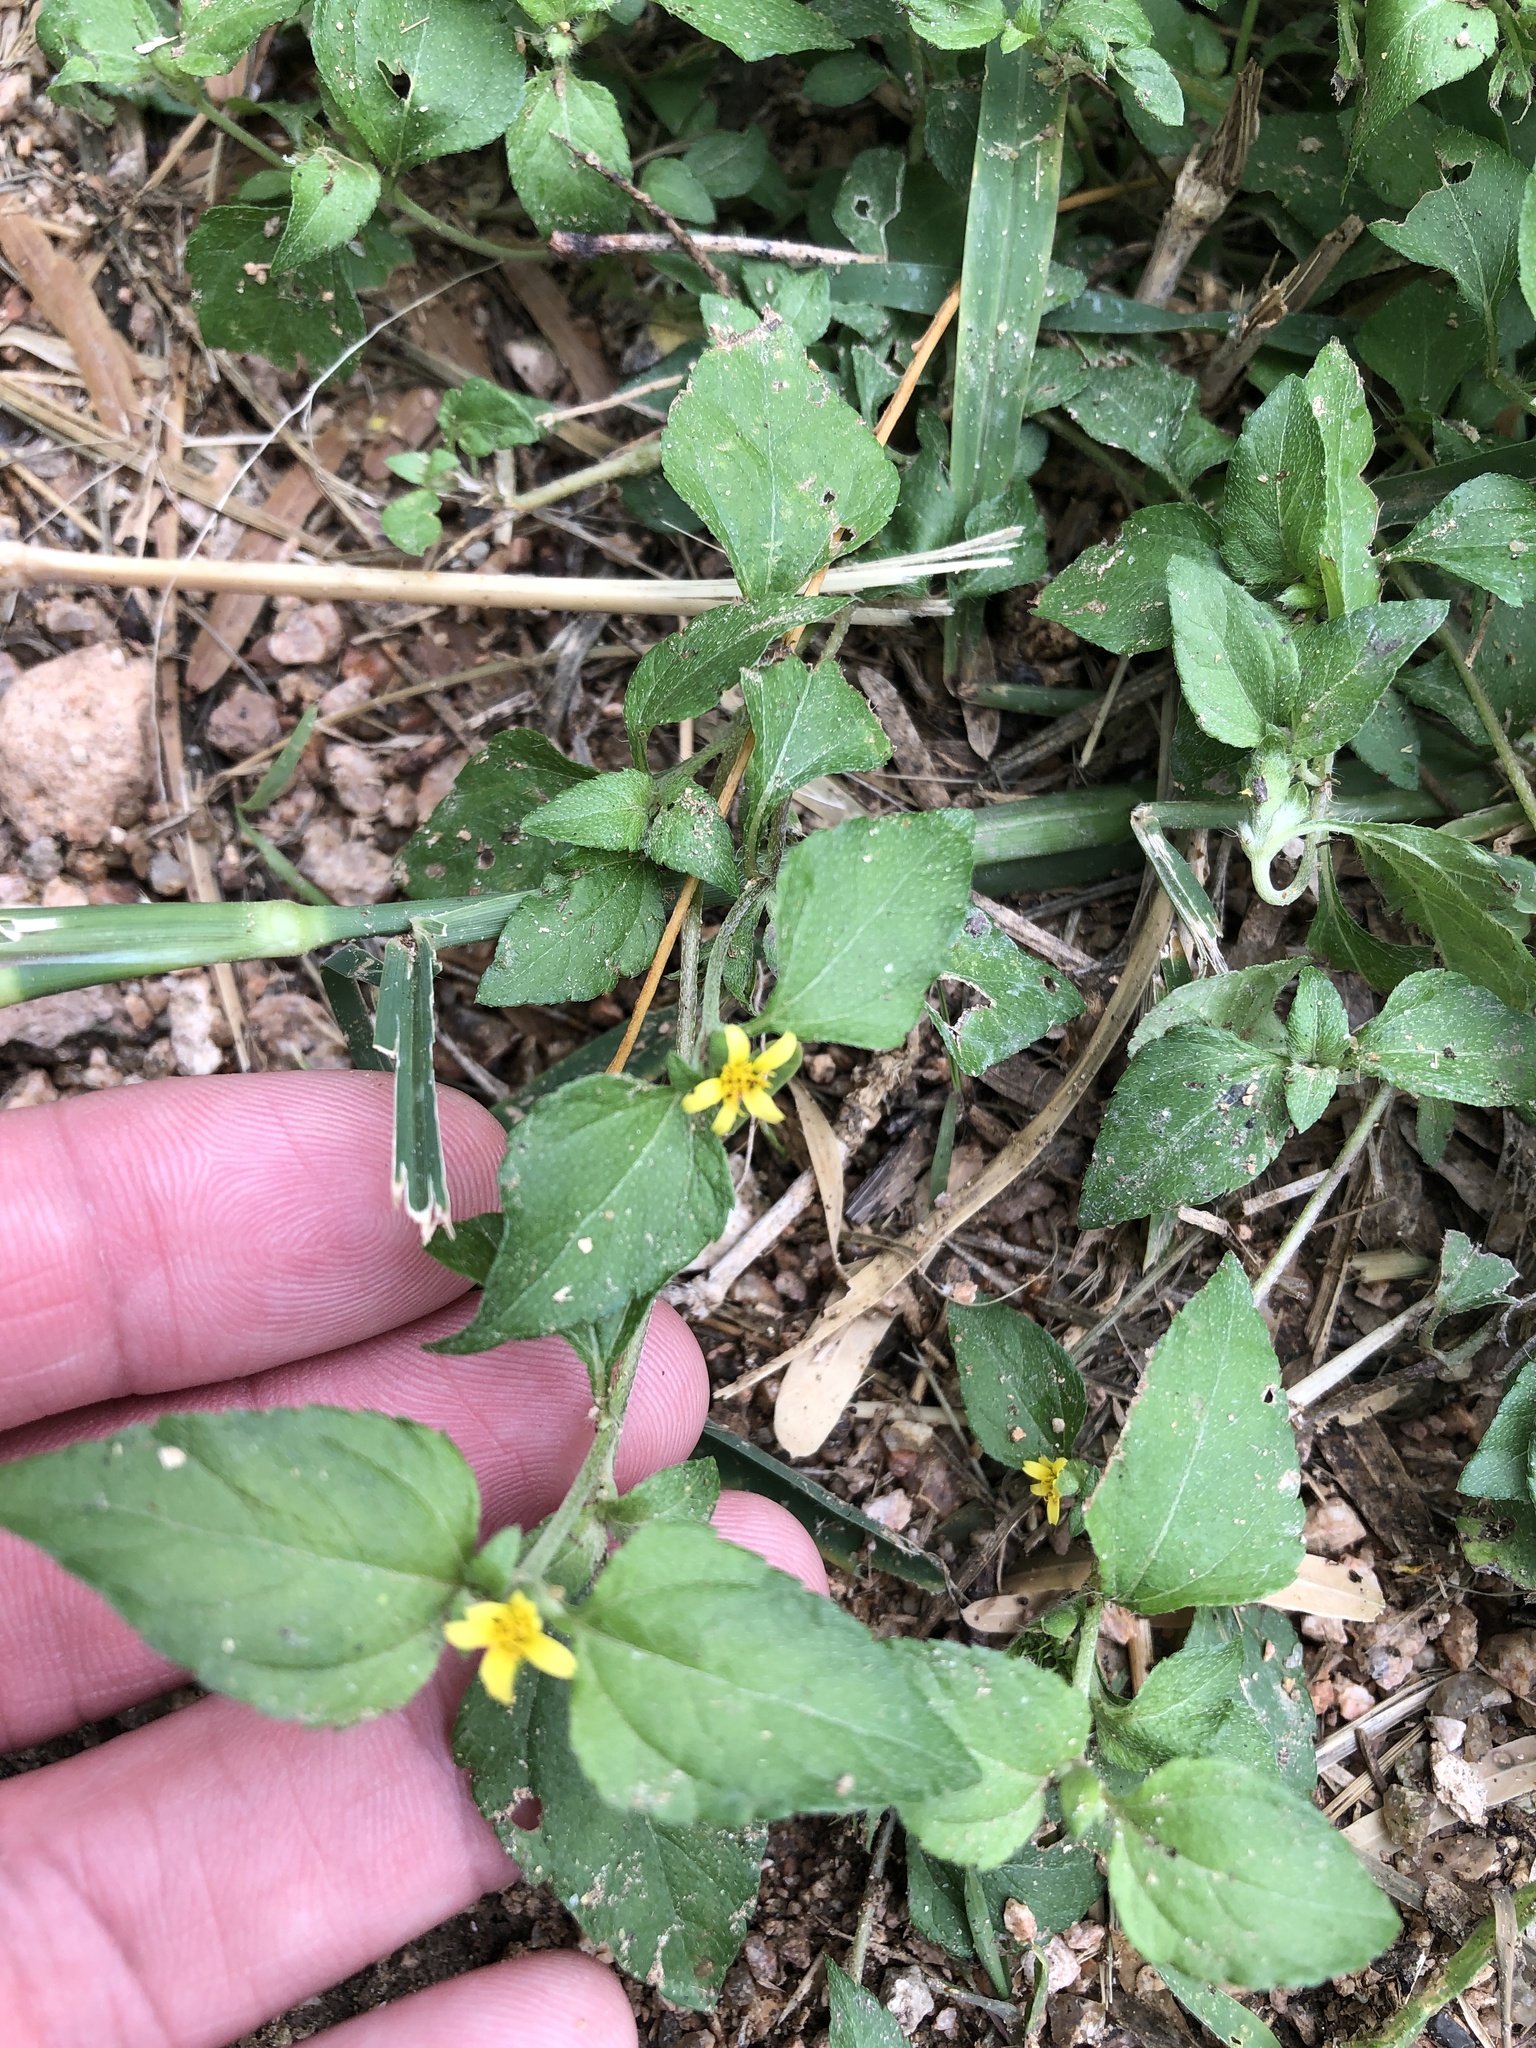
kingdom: Plantae
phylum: Tracheophyta
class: Magnoliopsida
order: Asterales
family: Asteraceae
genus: Calyptocarpus
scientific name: Calyptocarpus vialis
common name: Straggler daisy
